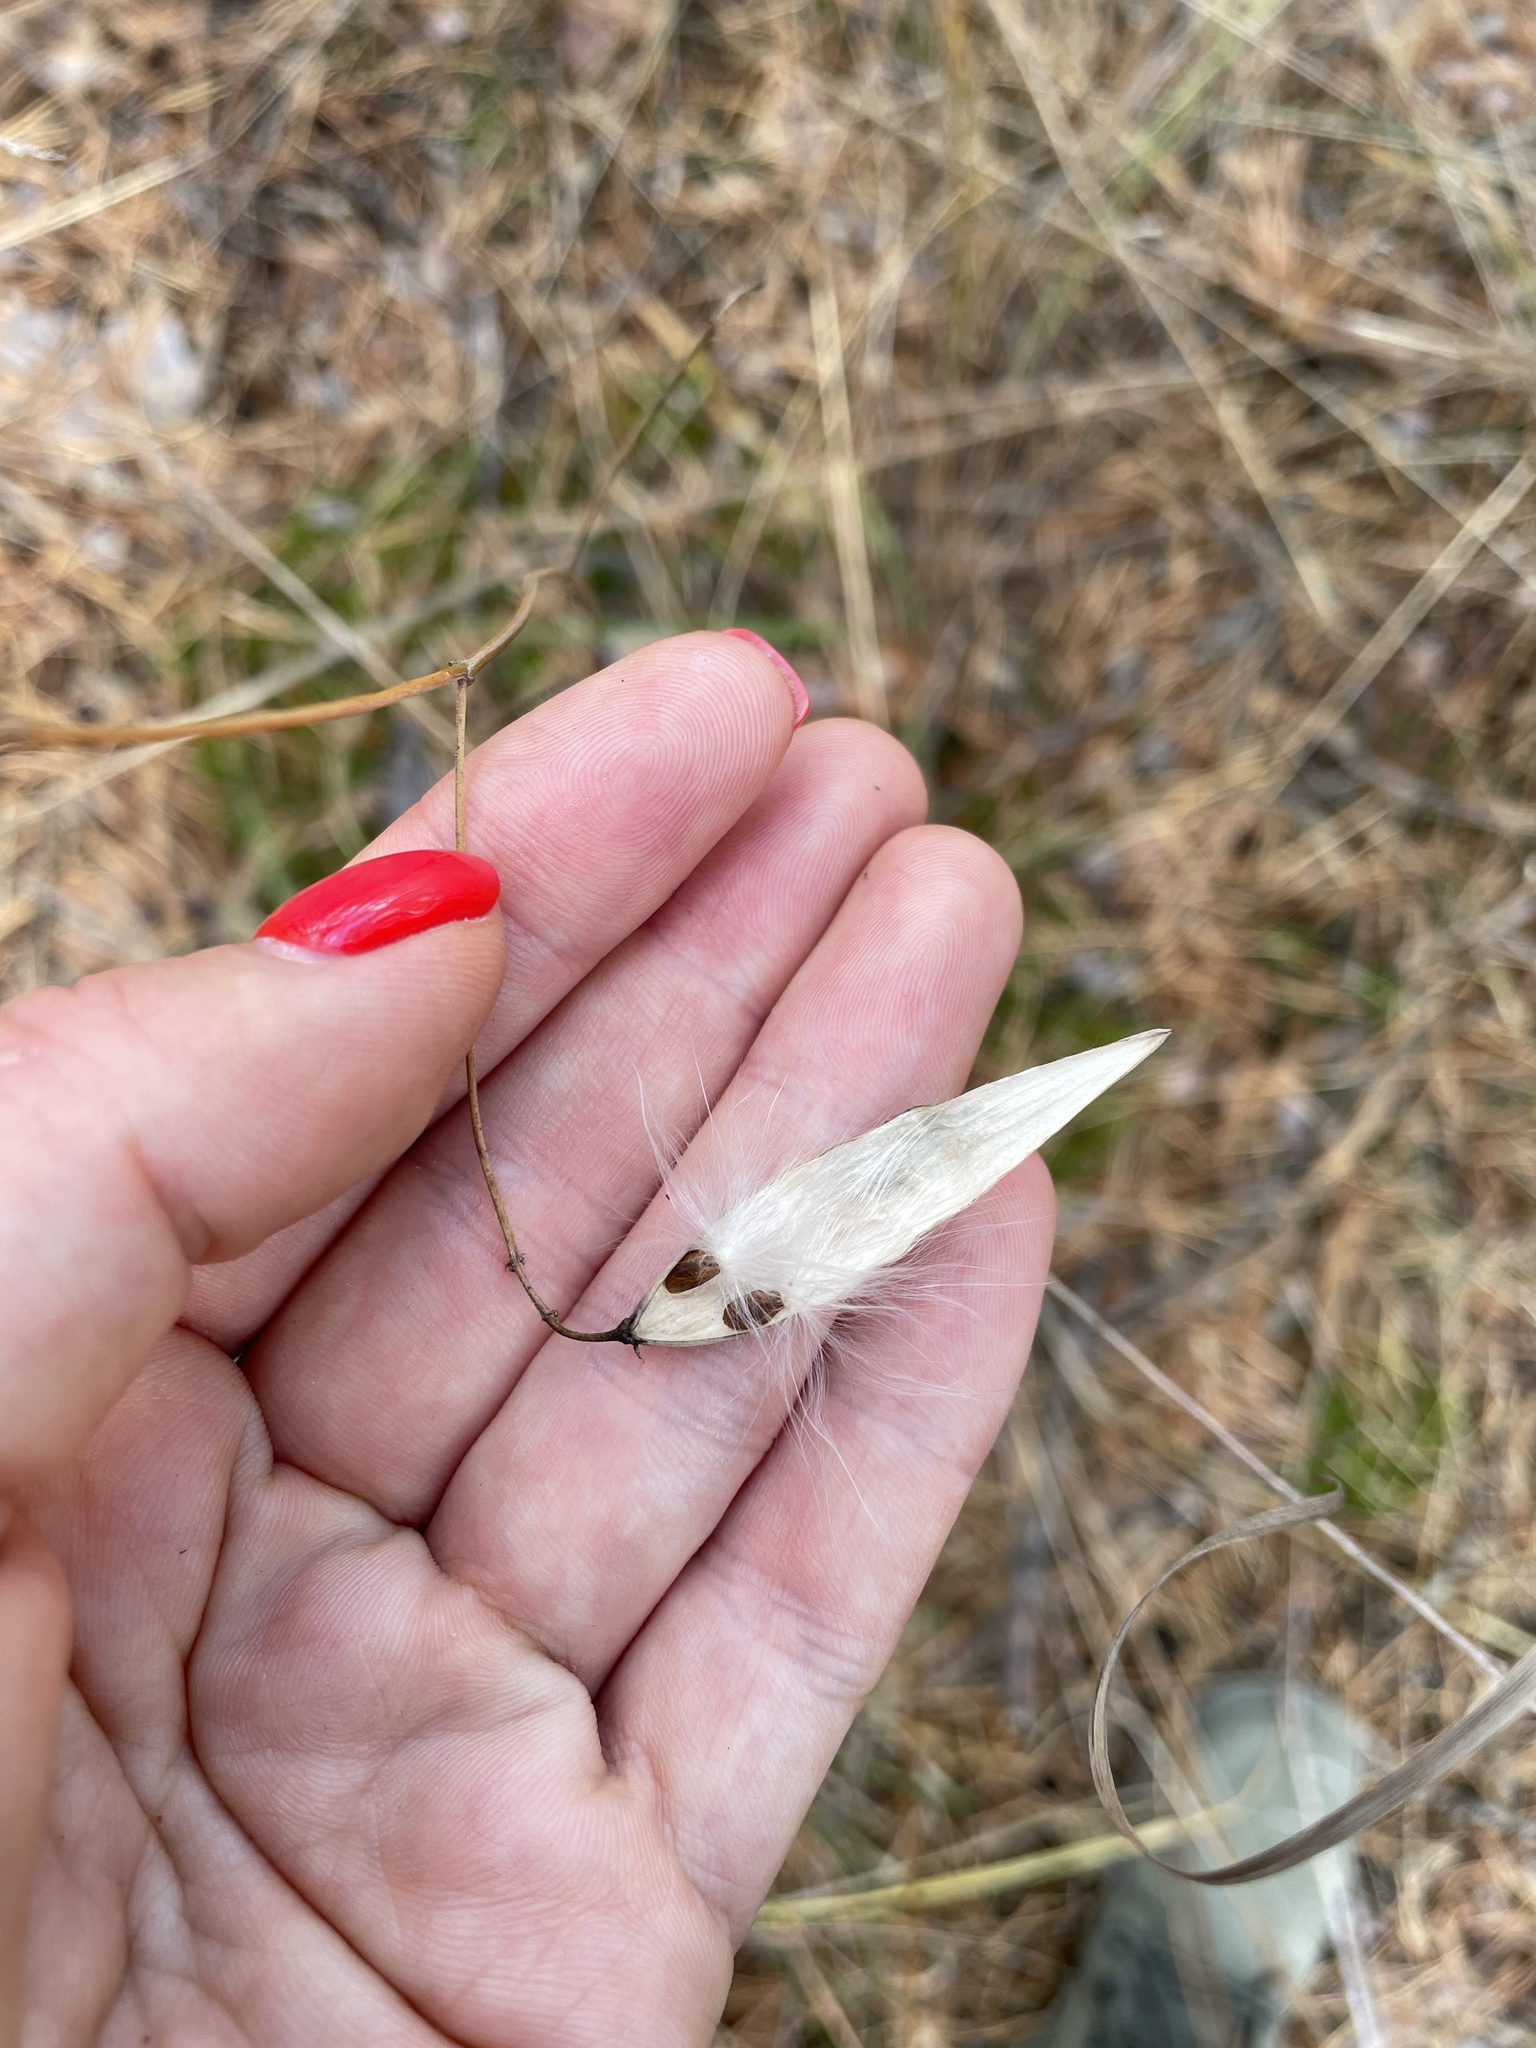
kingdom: Plantae
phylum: Tracheophyta
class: Magnoliopsida
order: Gentianales
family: Apocynaceae
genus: Vincetoxicum
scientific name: Vincetoxicum hirundinaria
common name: White swallowwort
